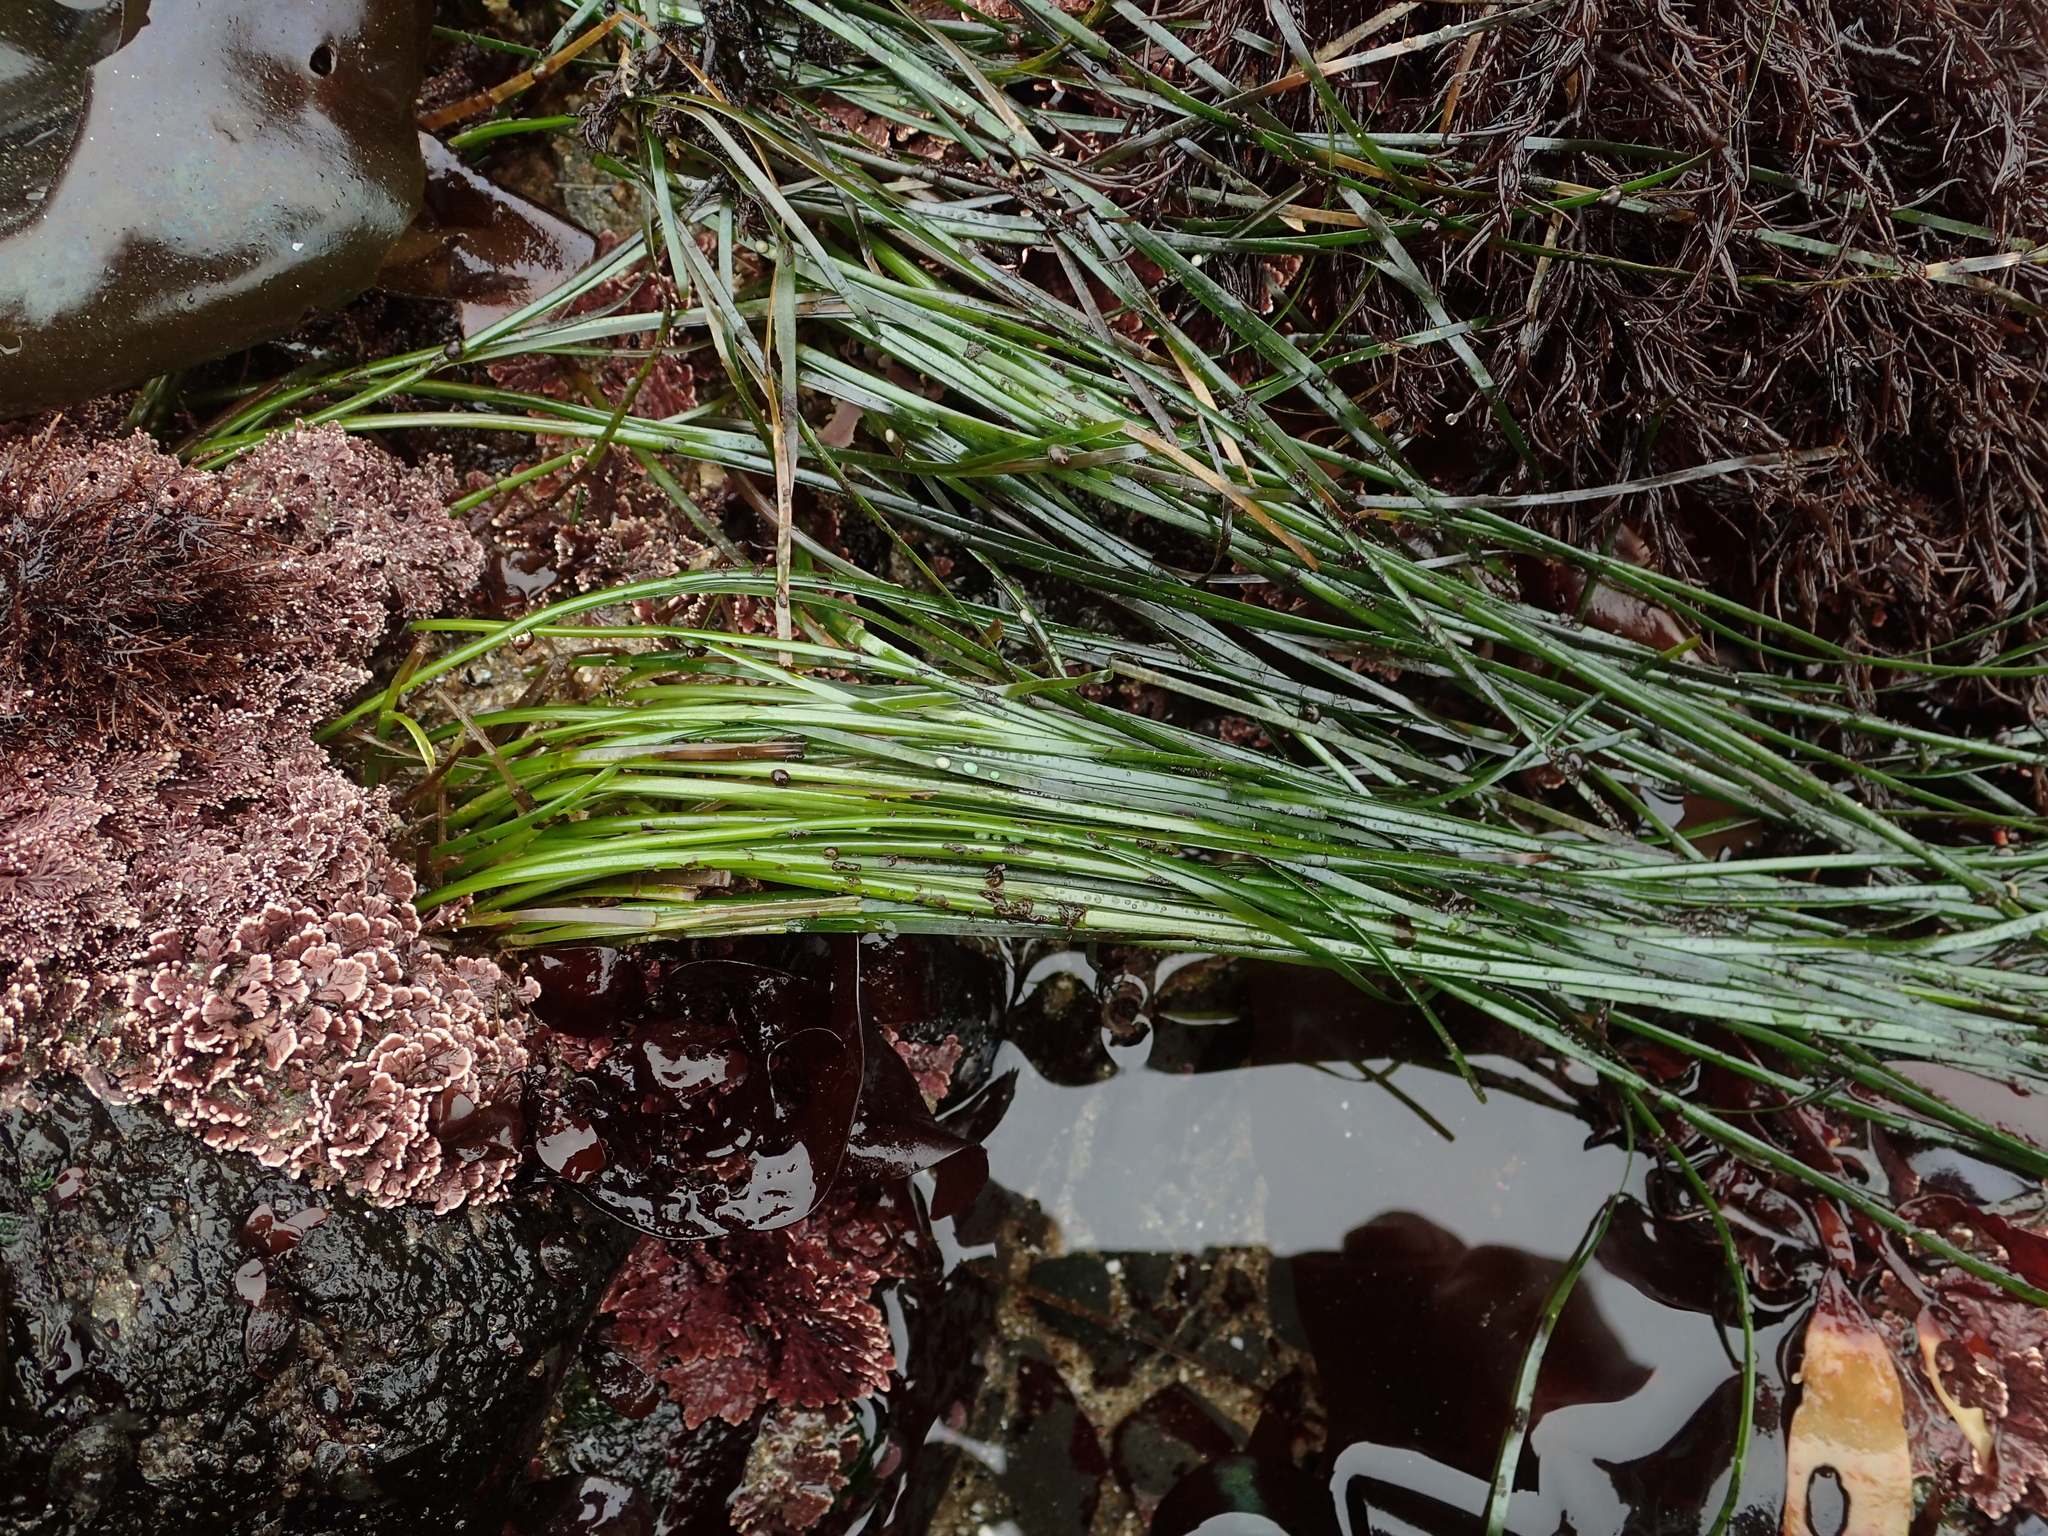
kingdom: Plantae
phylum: Tracheophyta
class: Liliopsida
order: Alismatales
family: Zosteraceae
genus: Phyllospadix
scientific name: Phyllospadix torreyi
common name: Surfgrass
